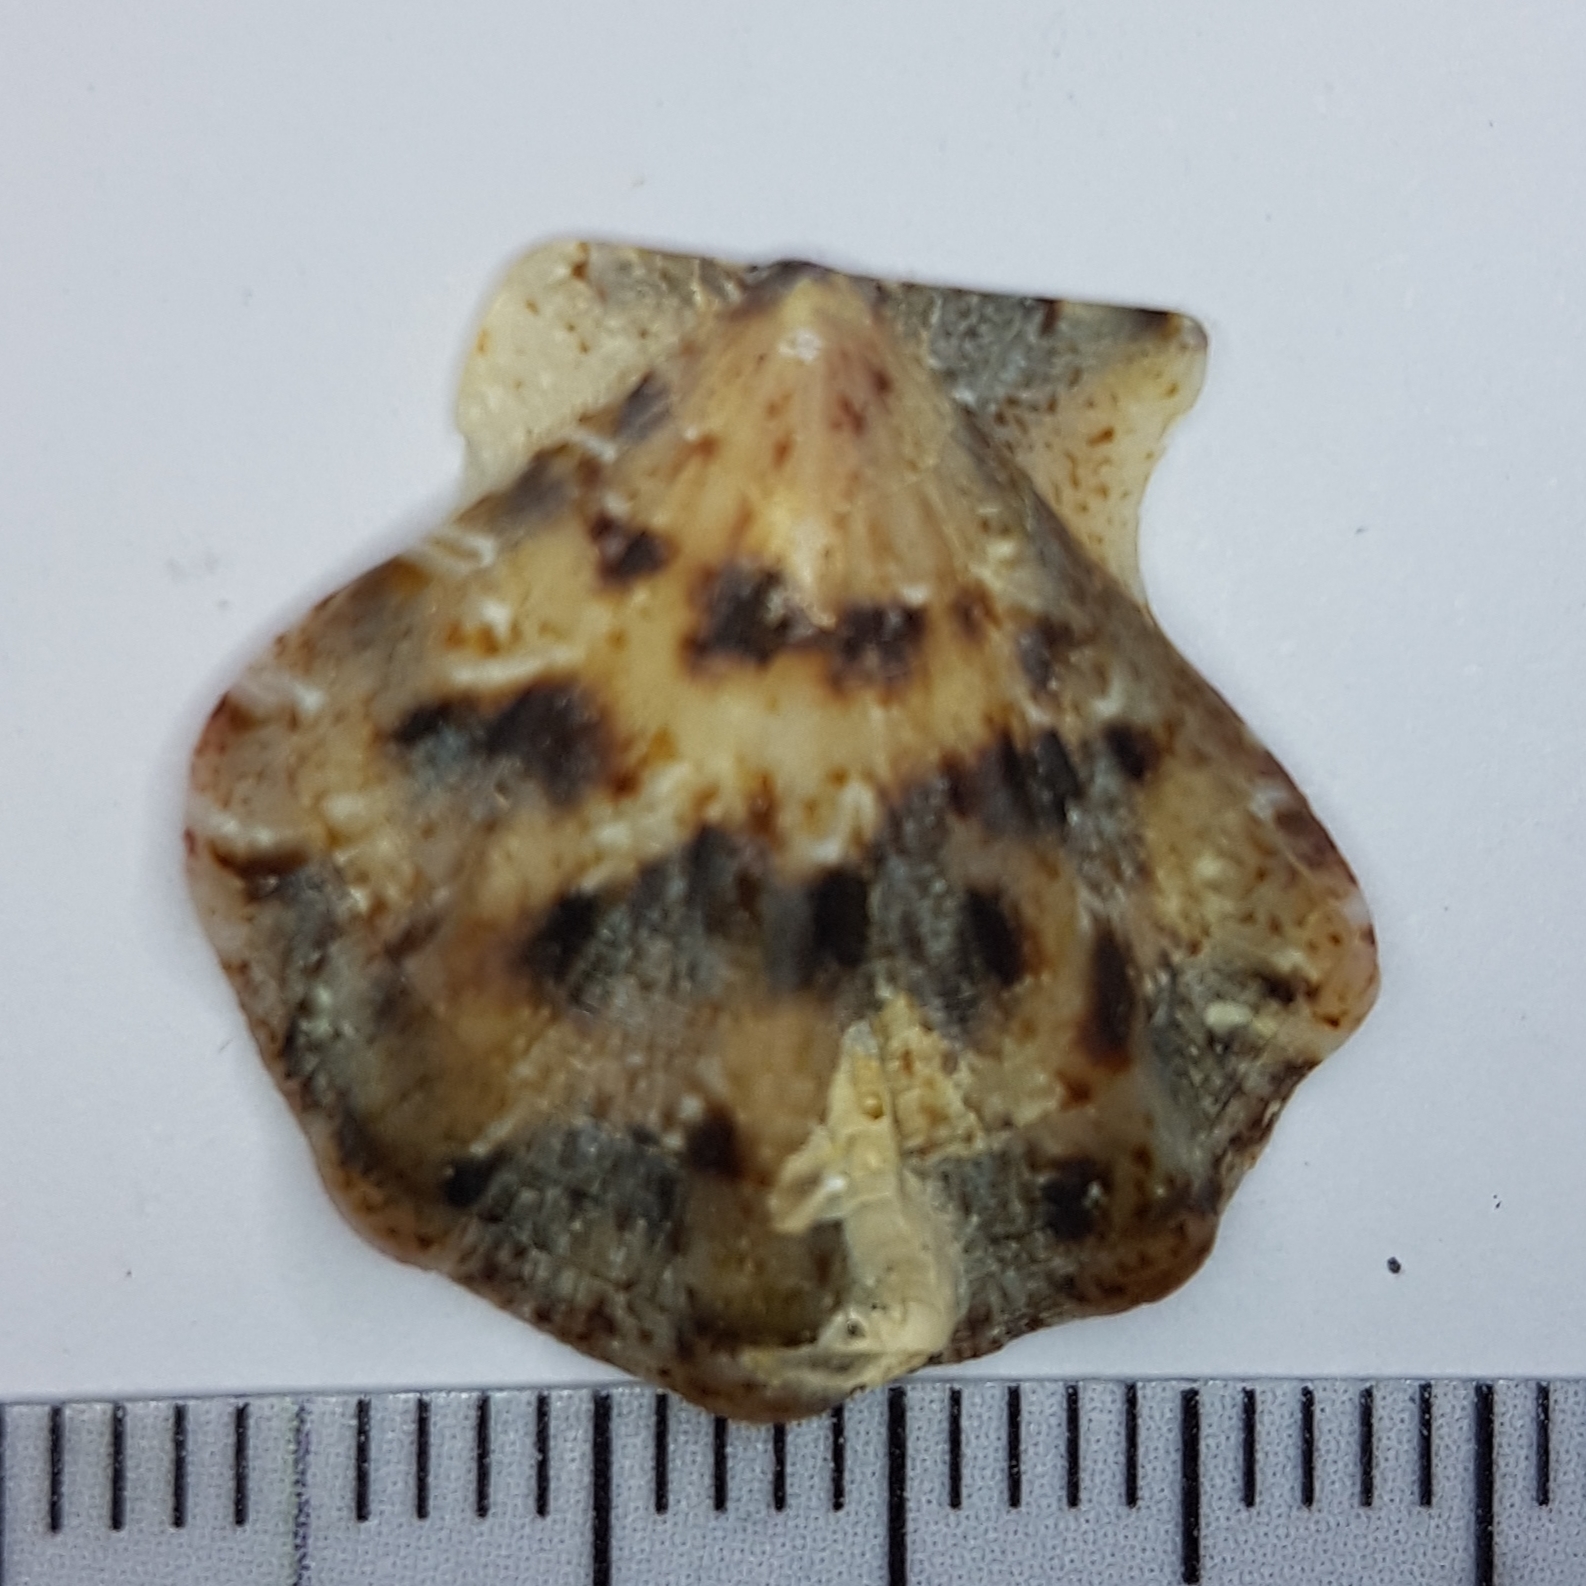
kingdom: Animalia
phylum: Mollusca
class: Bivalvia
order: Pectinida
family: Pectinidae
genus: Flexopecten
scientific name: Flexopecten flexuosus
